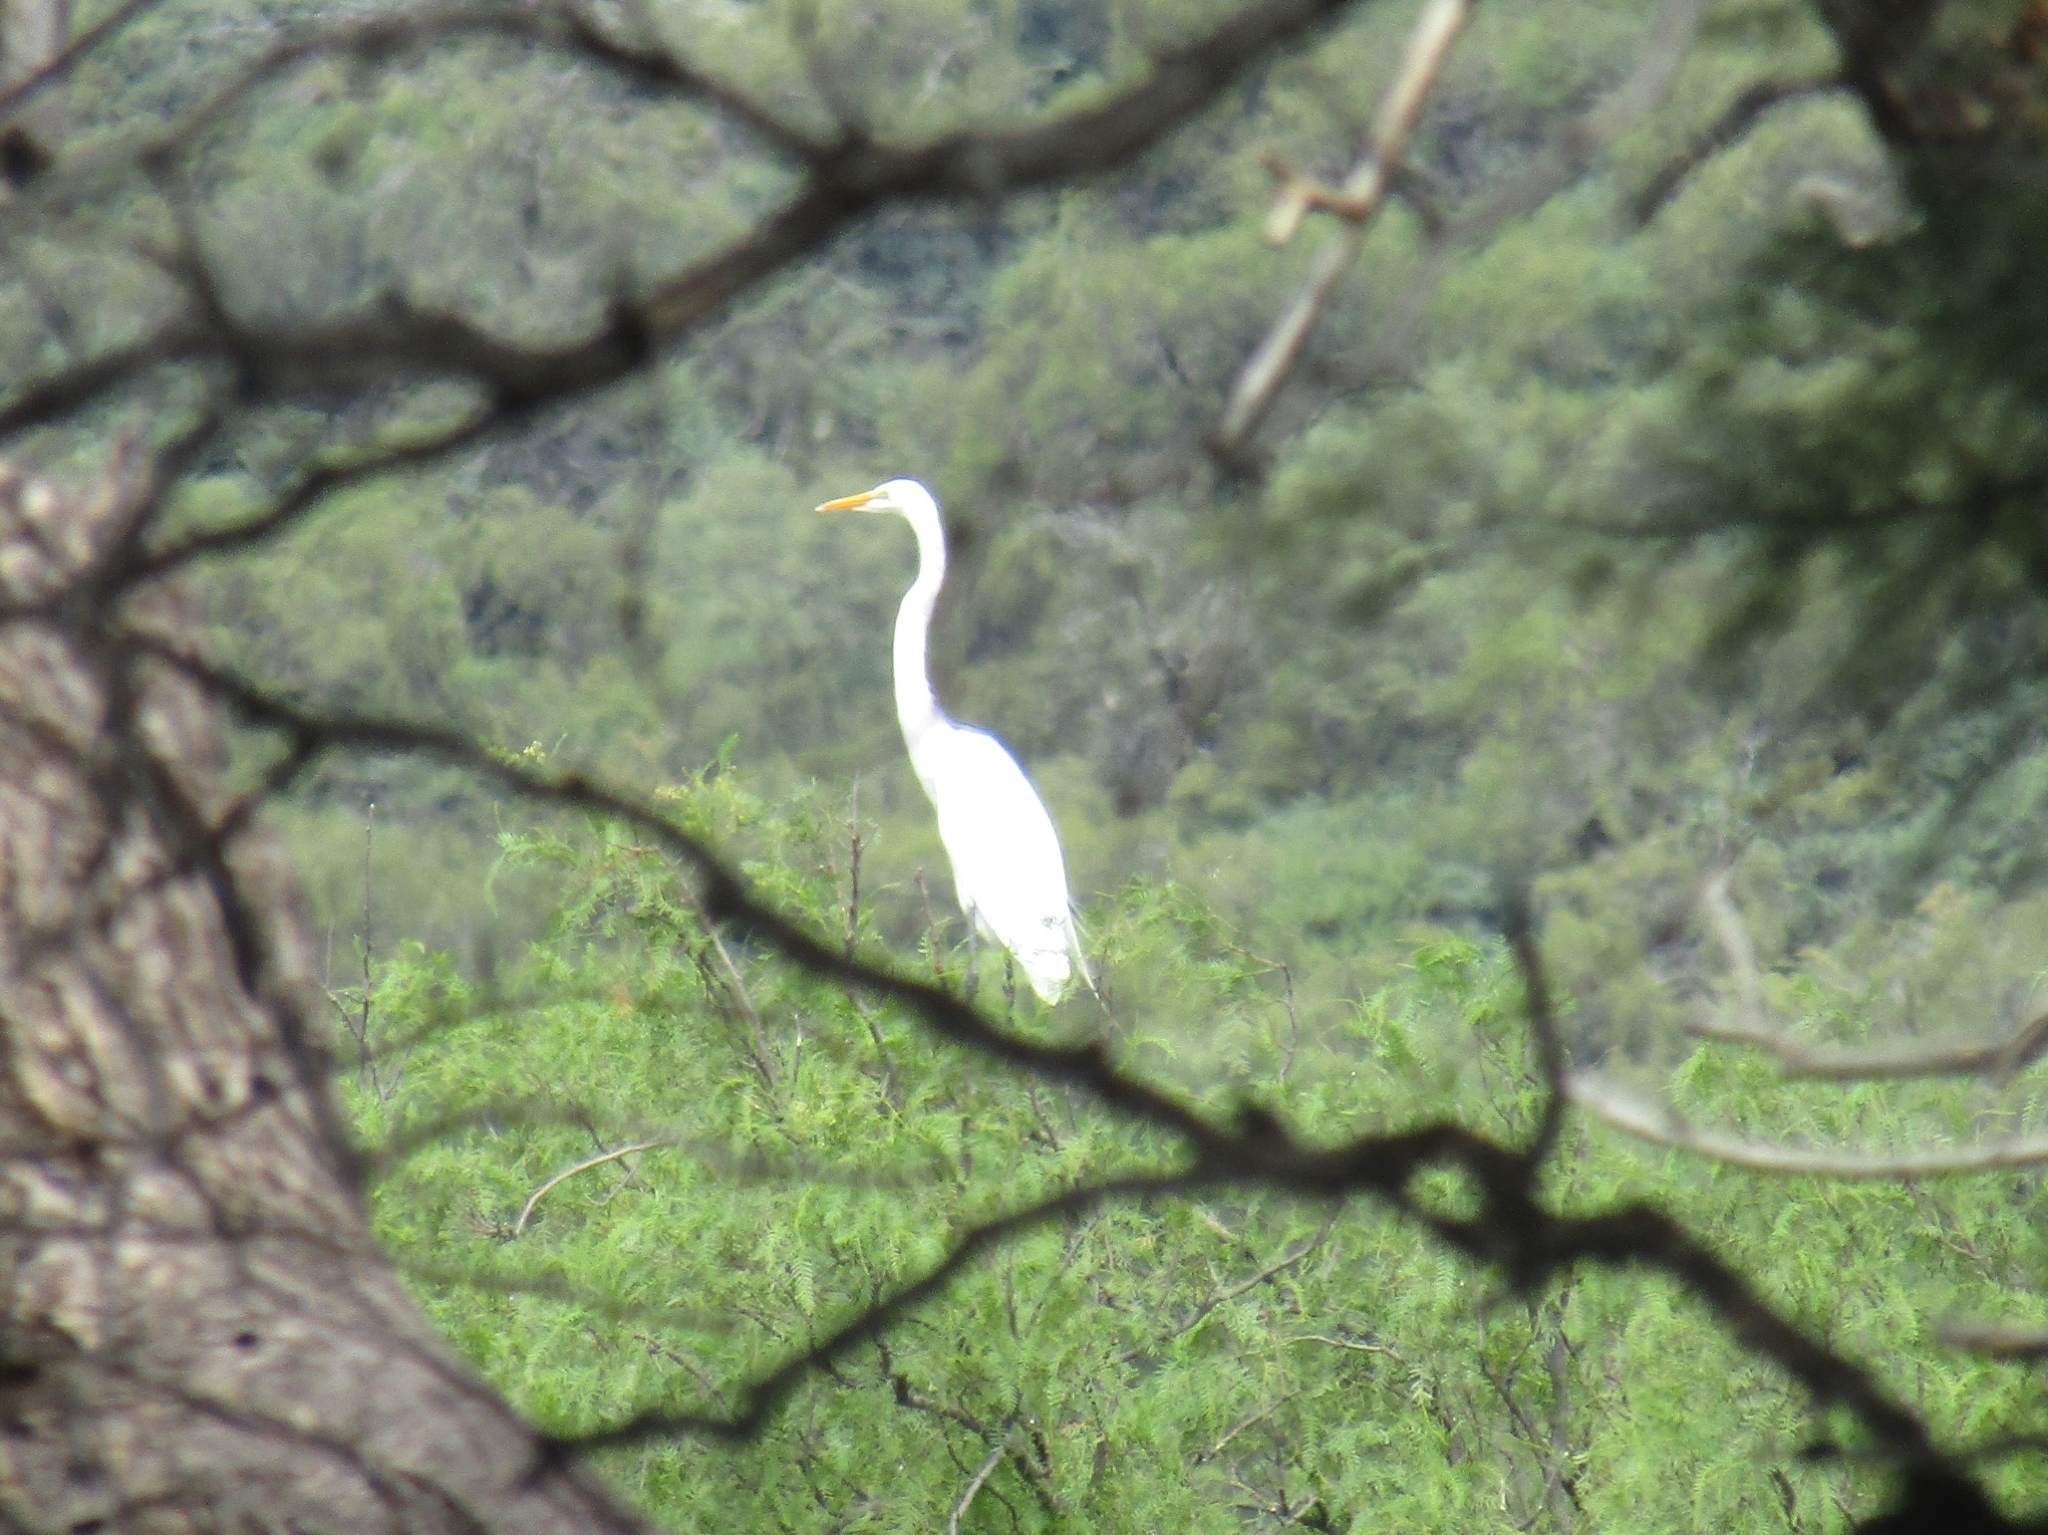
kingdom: Animalia
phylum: Chordata
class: Aves
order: Pelecaniformes
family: Ardeidae
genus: Ardea
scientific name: Ardea alba
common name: Great egret
